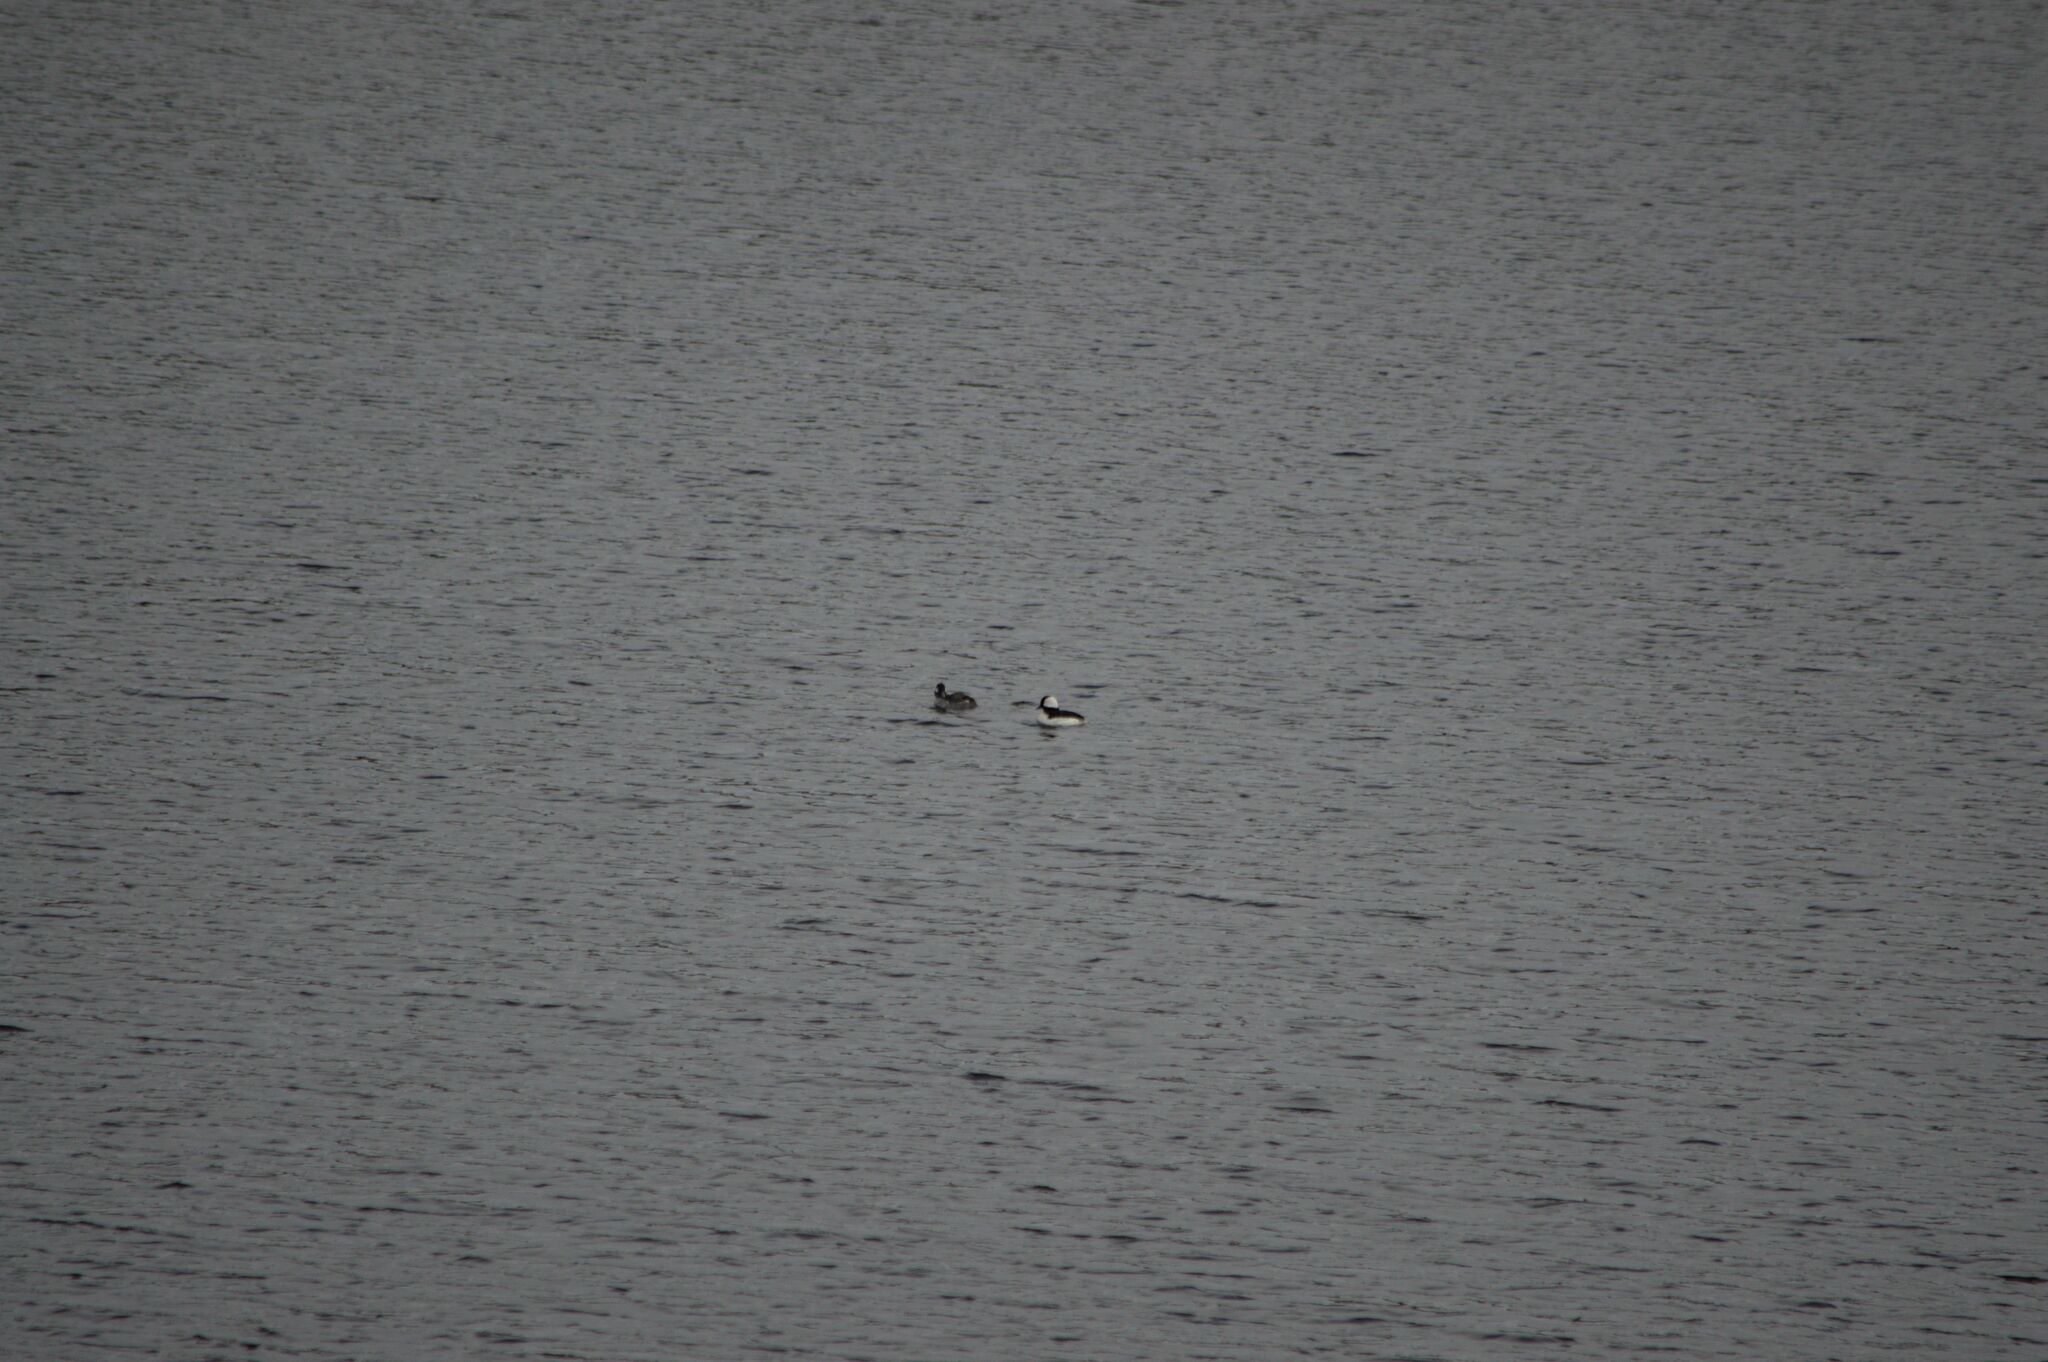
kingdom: Animalia
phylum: Chordata
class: Aves
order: Anseriformes
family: Anatidae
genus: Bucephala
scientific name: Bucephala albeola
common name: Bufflehead
